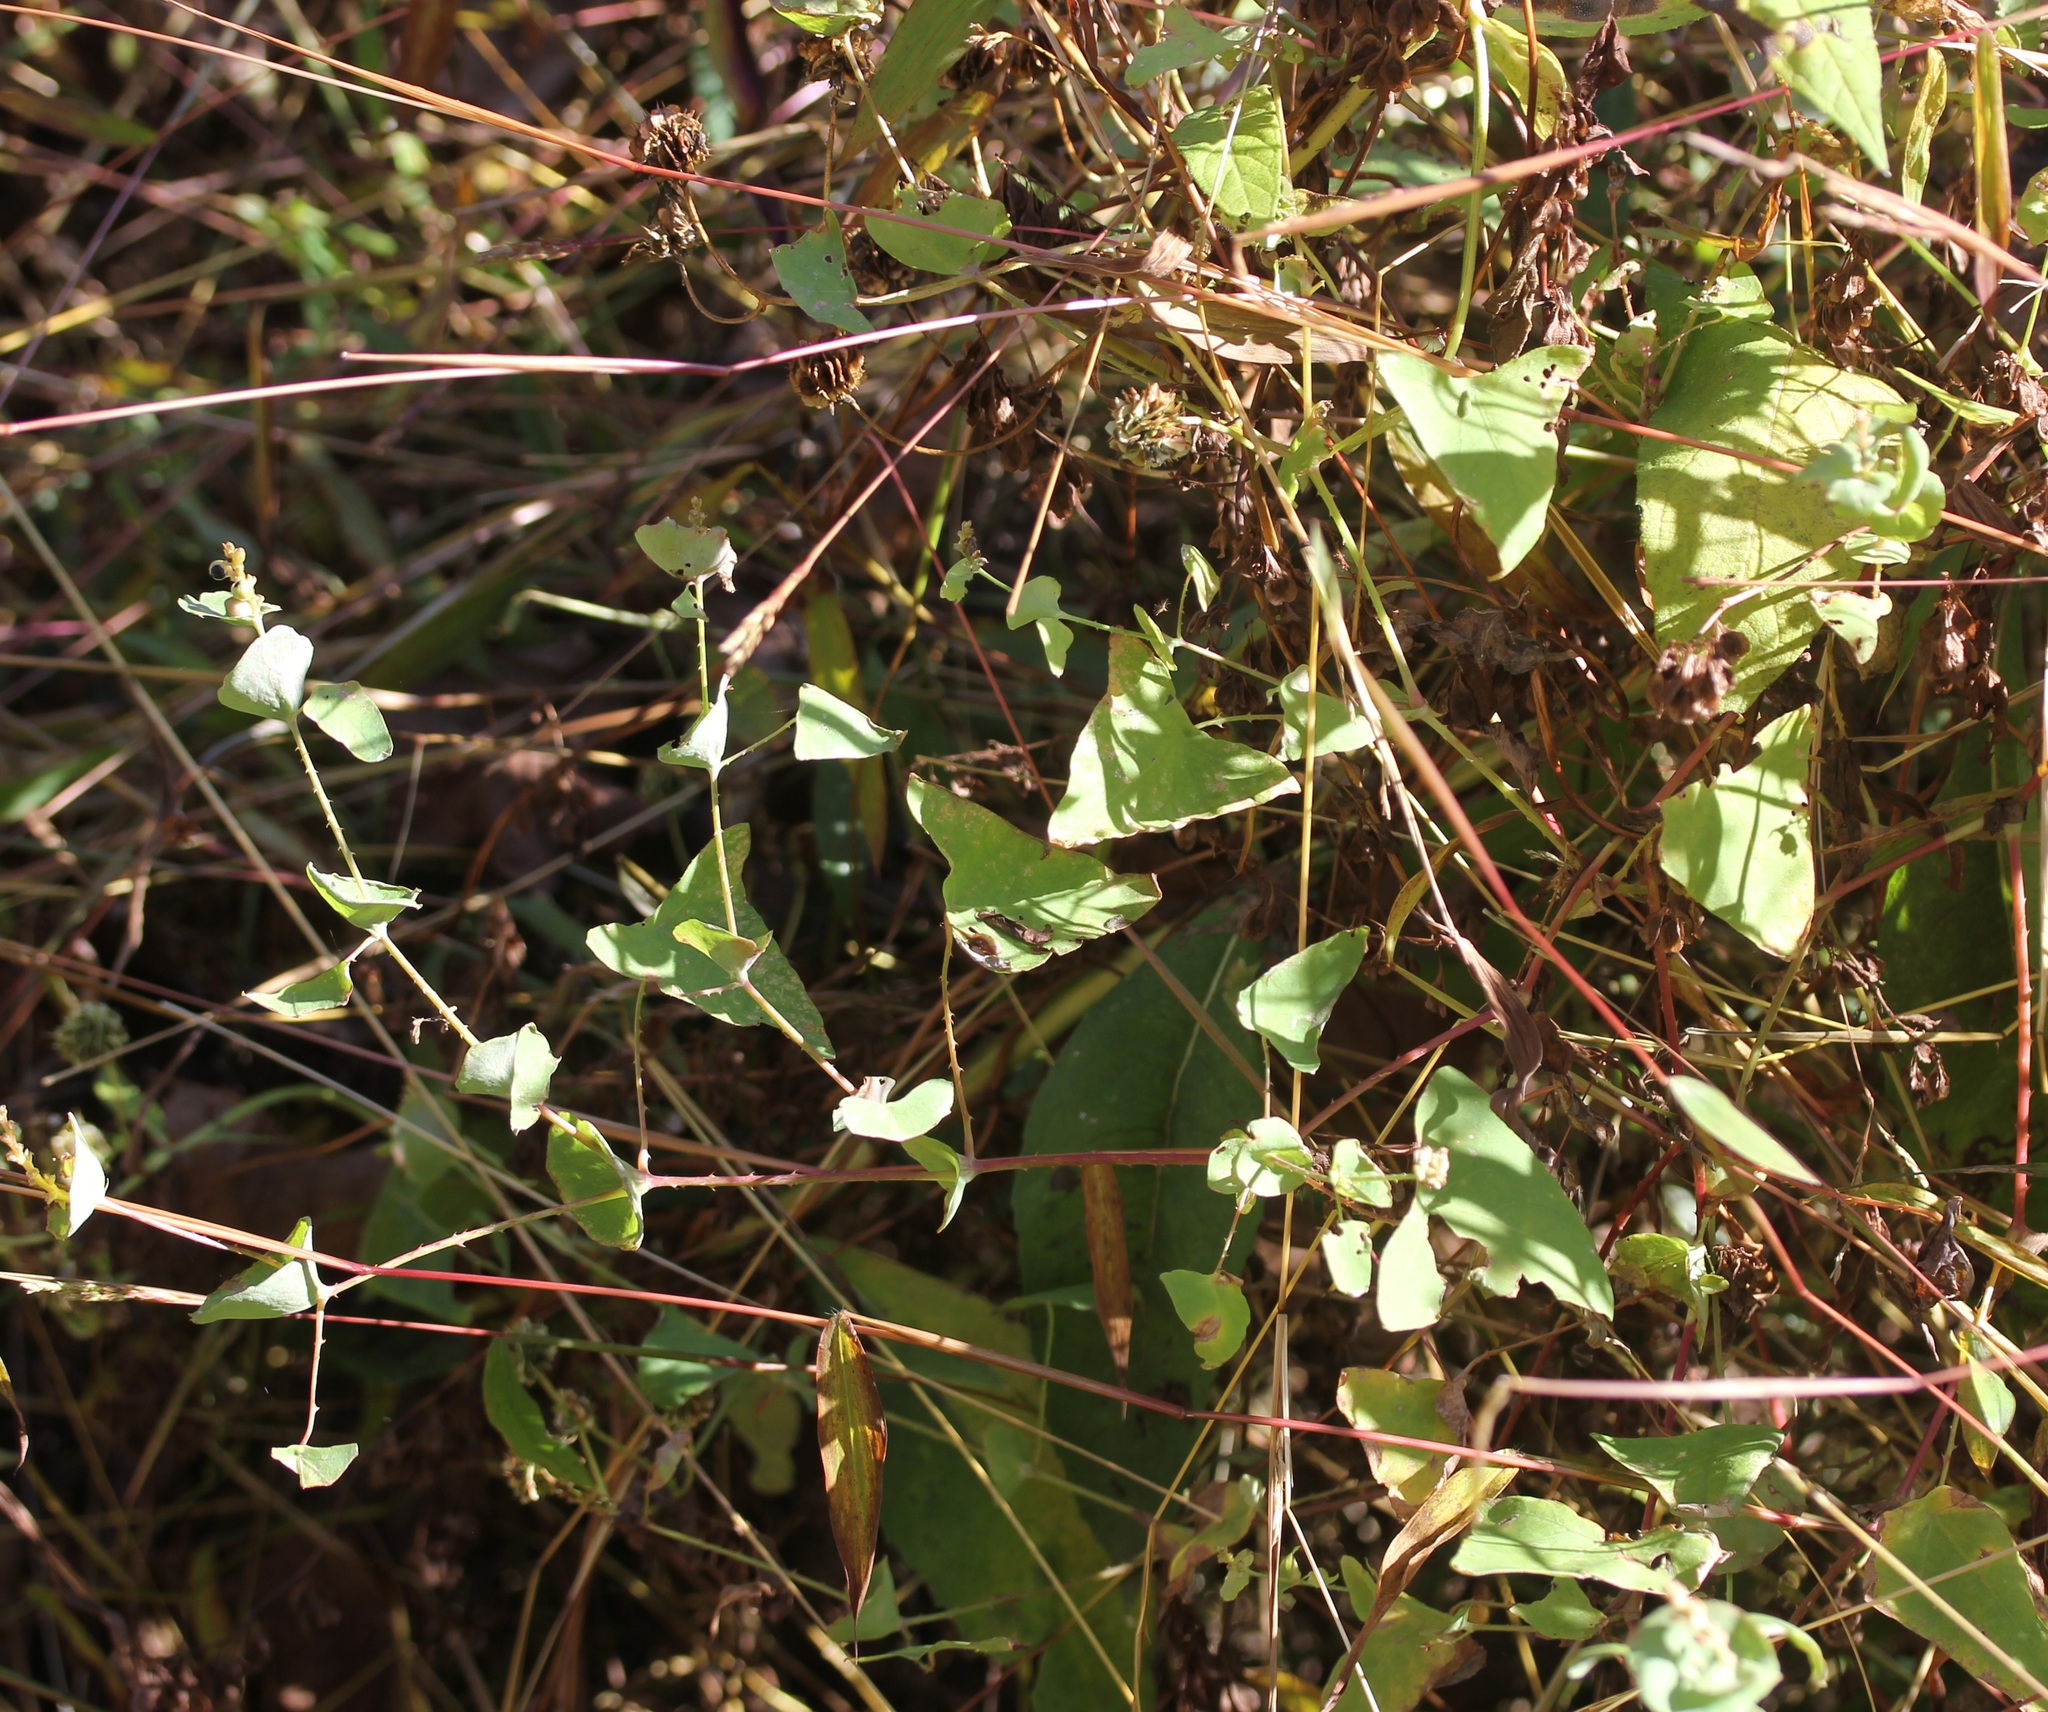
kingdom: Plantae
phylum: Tracheophyta
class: Magnoliopsida
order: Caryophyllales
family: Polygonaceae
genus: Persicaria
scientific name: Persicaria perfoliata
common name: Asiatic tearthumb
